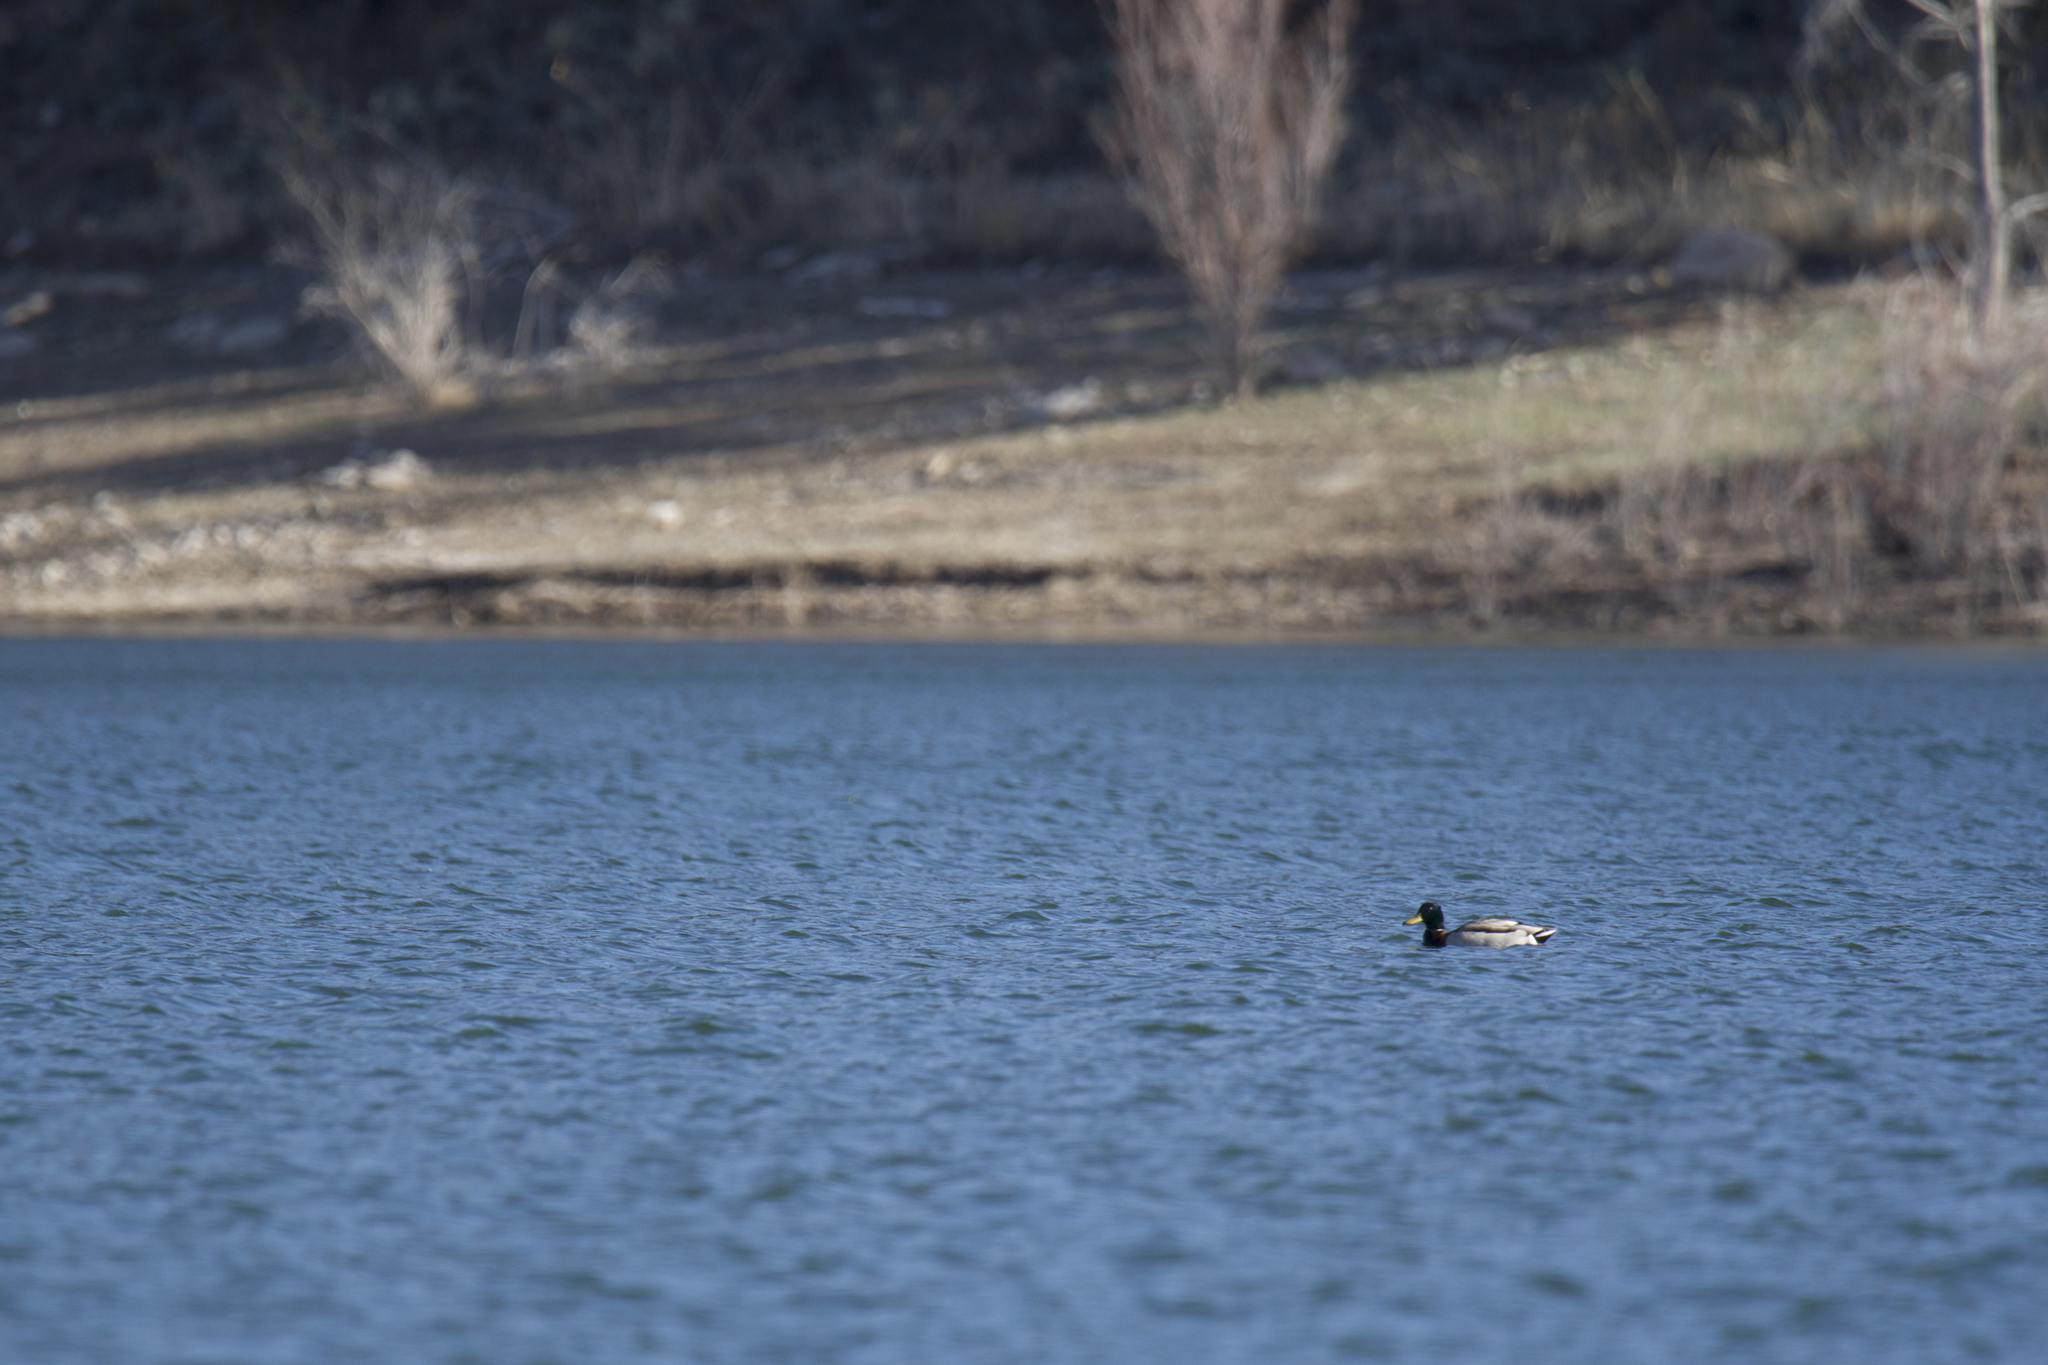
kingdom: Animalia
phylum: Chordata
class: Aves
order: Anseriformes
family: Anatidae
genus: Anas
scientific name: Anas platyrhynchos
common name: Mallard
